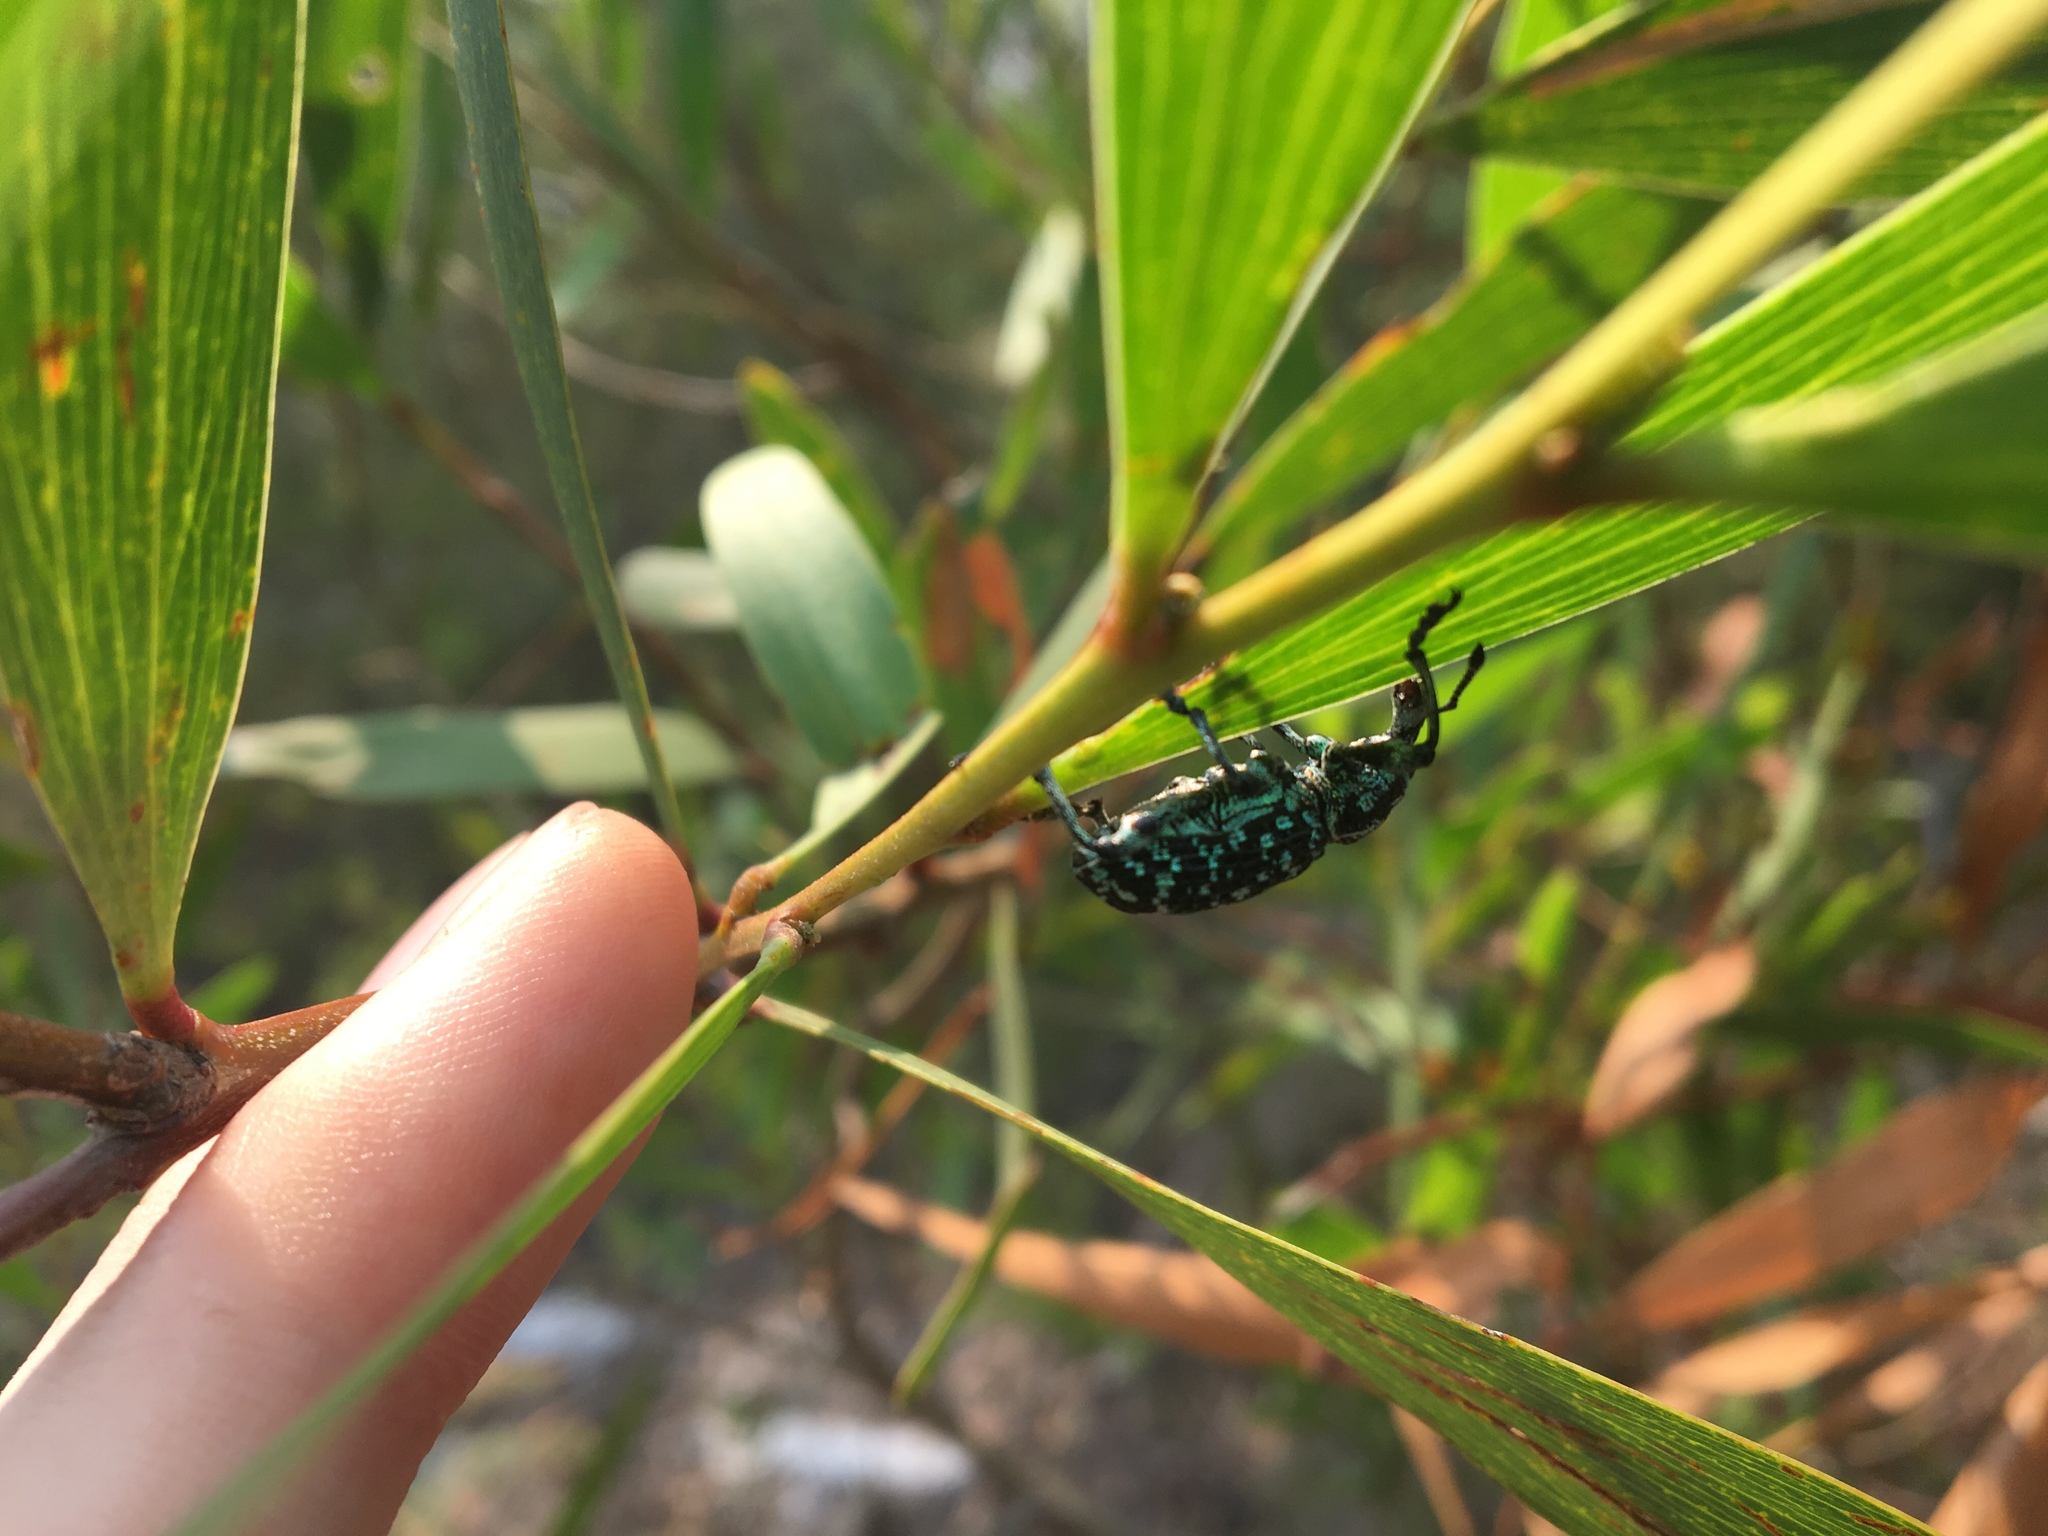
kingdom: Animalia
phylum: Arthropoda
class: Insecta
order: Coleoptera
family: Curculionidae
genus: Chrysolopus
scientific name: Chrysolopus spectabilis
